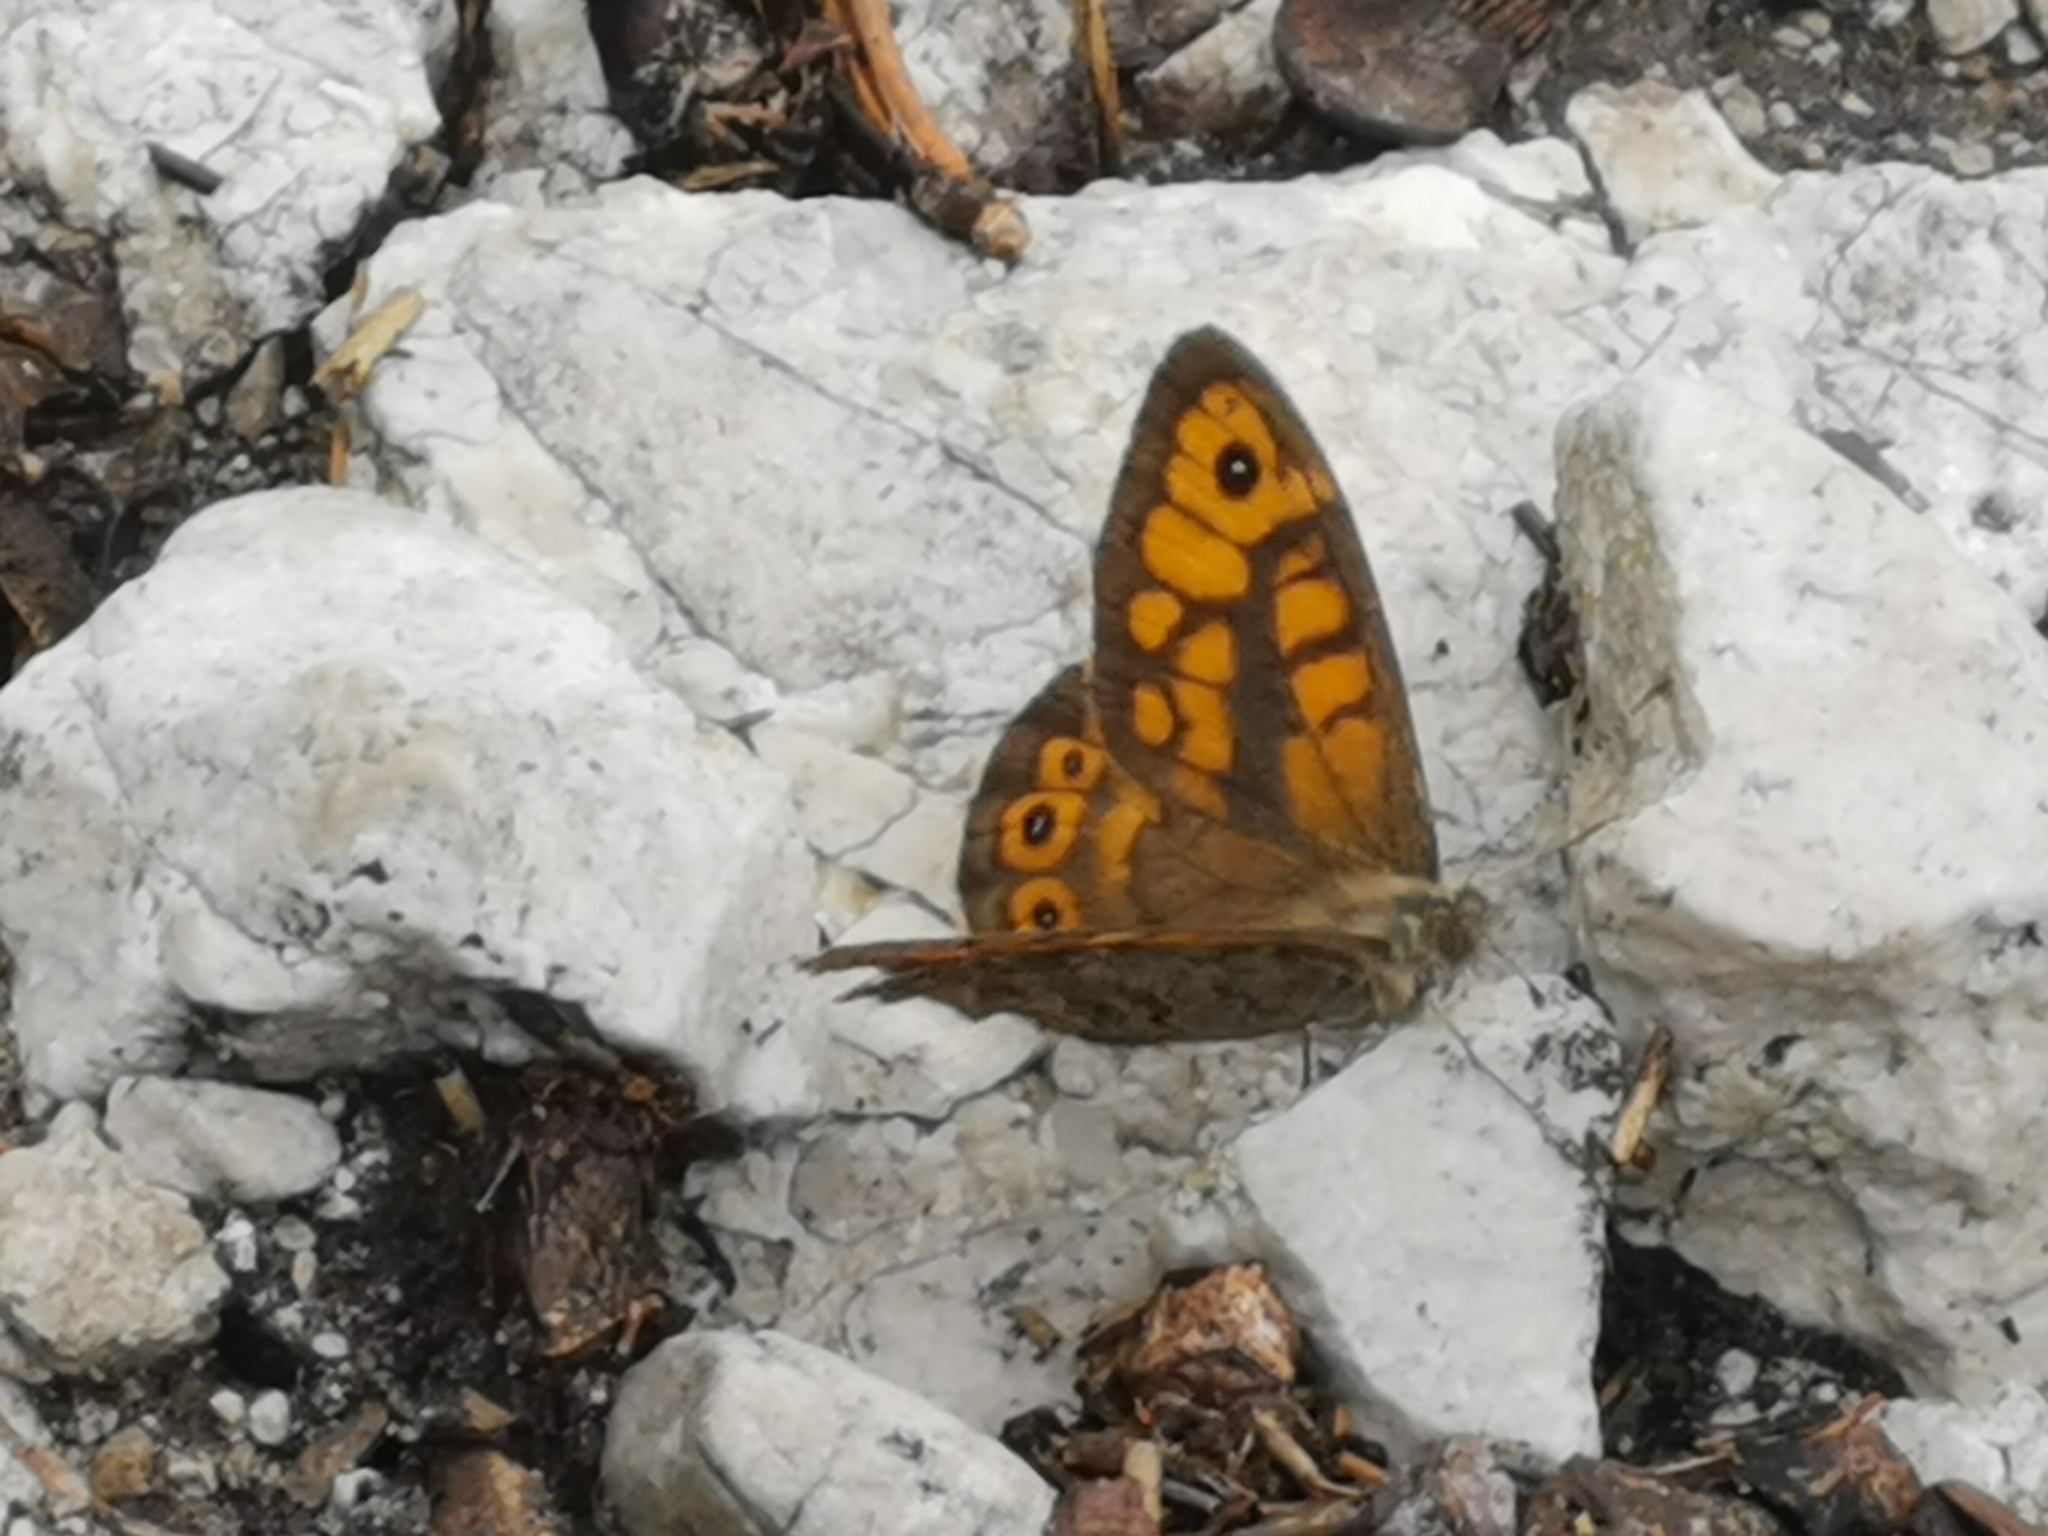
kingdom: Animalia
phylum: Arthropoda
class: Insecta
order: Lepidoptera
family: Nymphalidae
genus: Pararge
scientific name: Pararge Lasiommata megera
